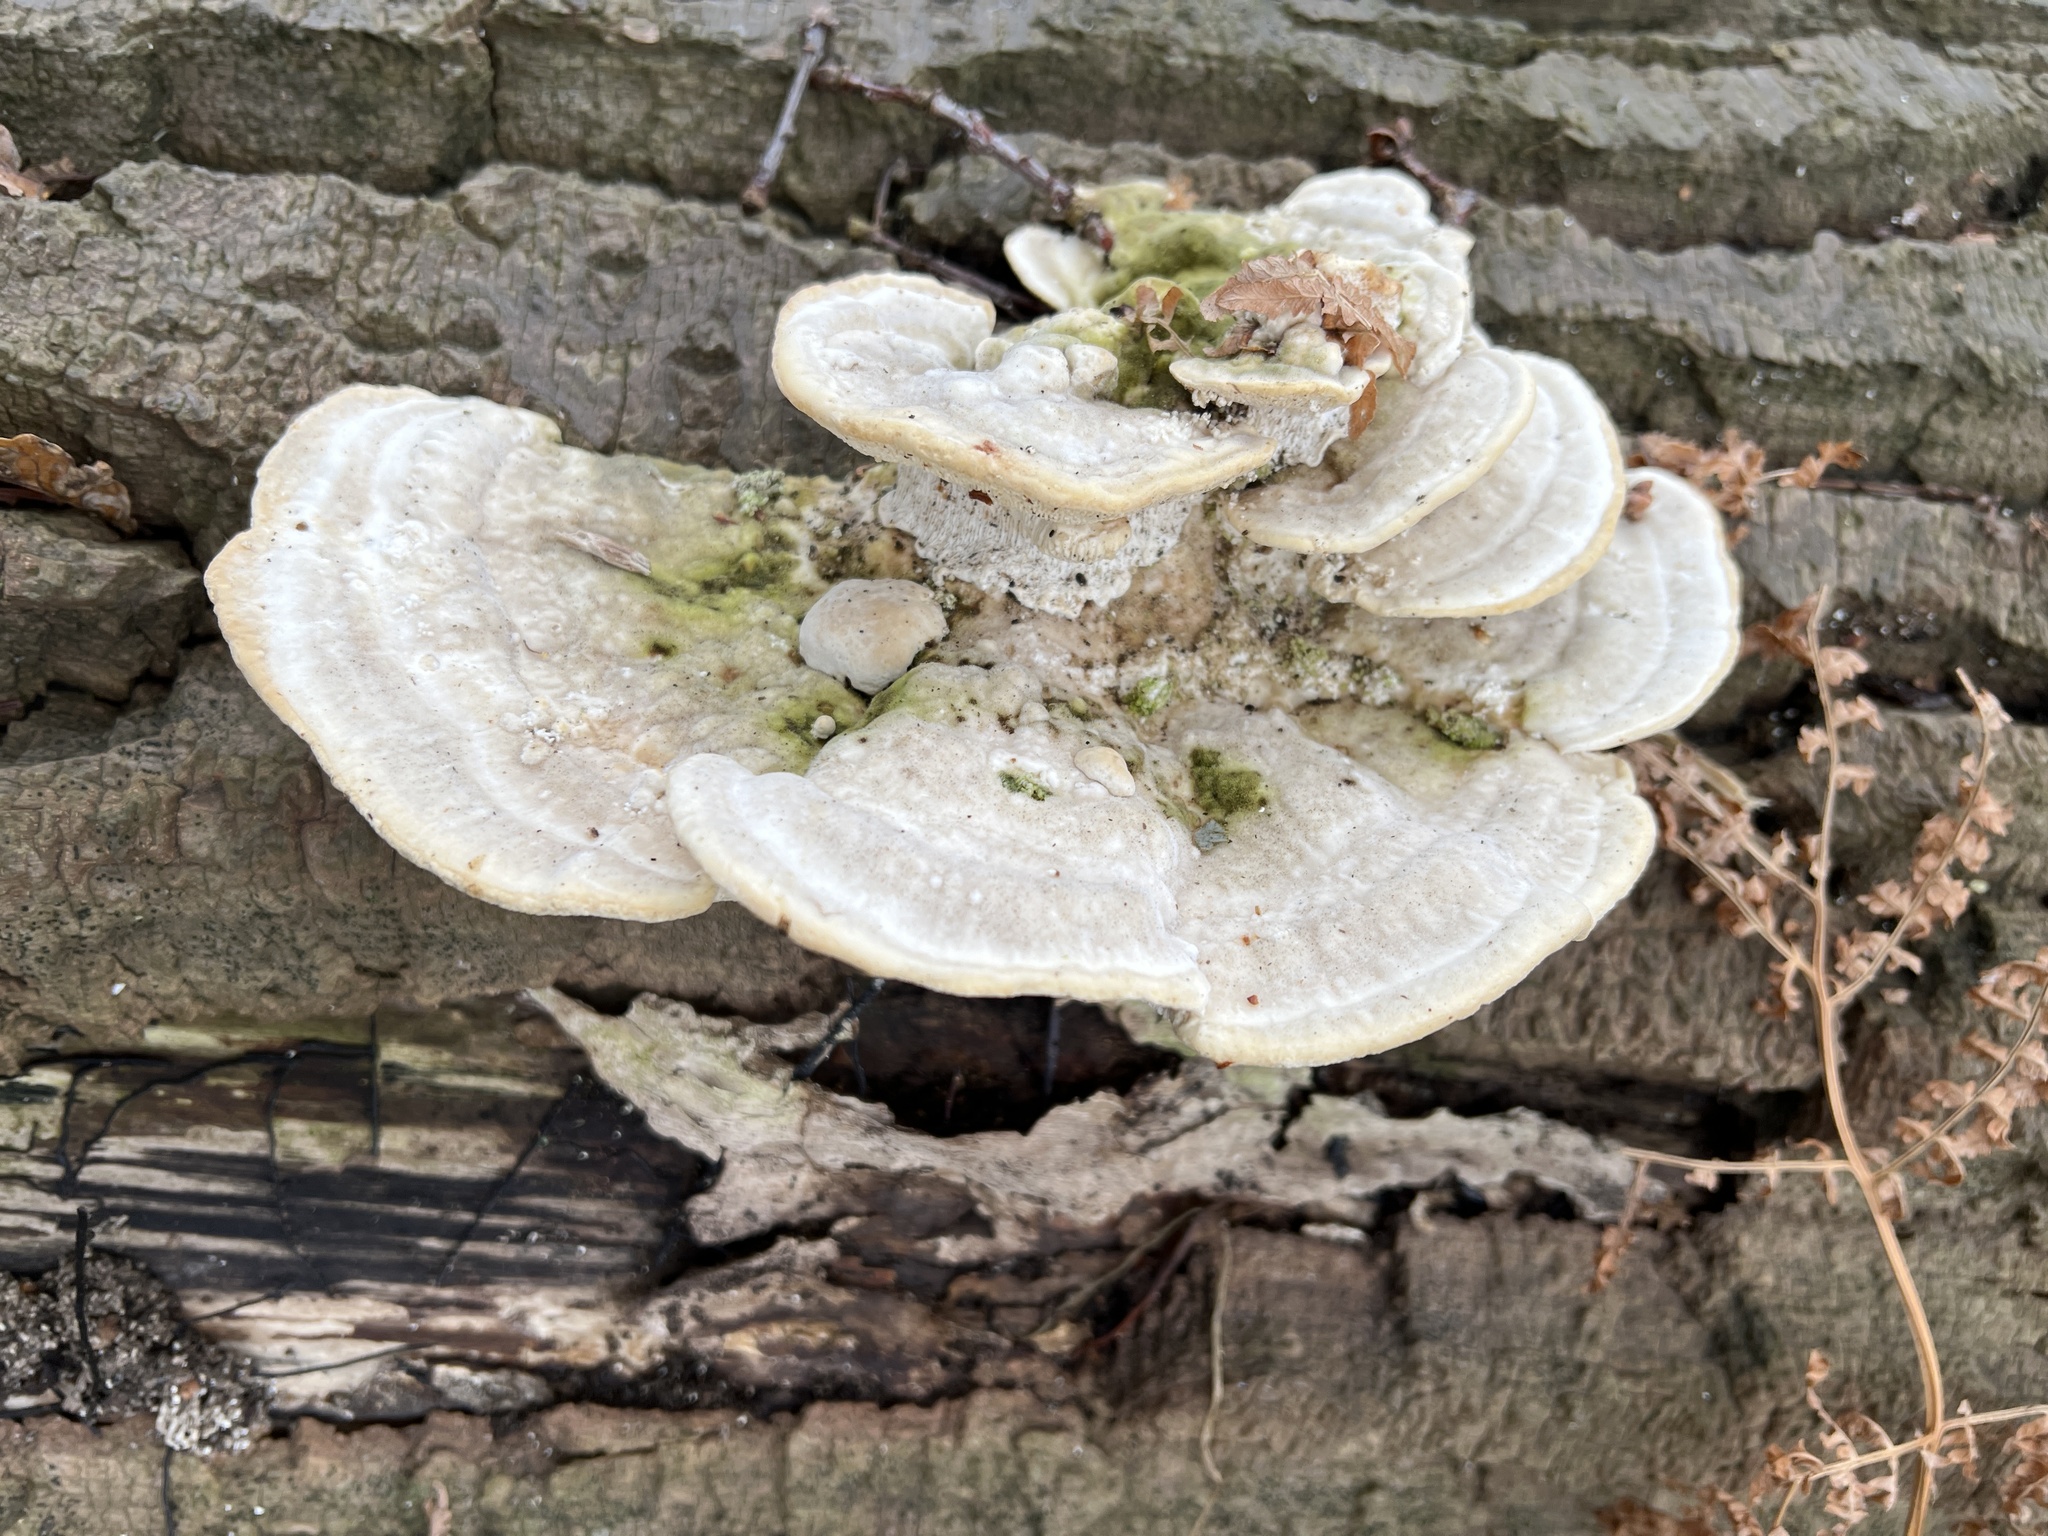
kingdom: Fungi
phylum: Basidiomycota
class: Agaricomycetes
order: Polyporales
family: Polyporaceae
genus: Trametes
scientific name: Trametes gibbosa
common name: Lumpy bracket
